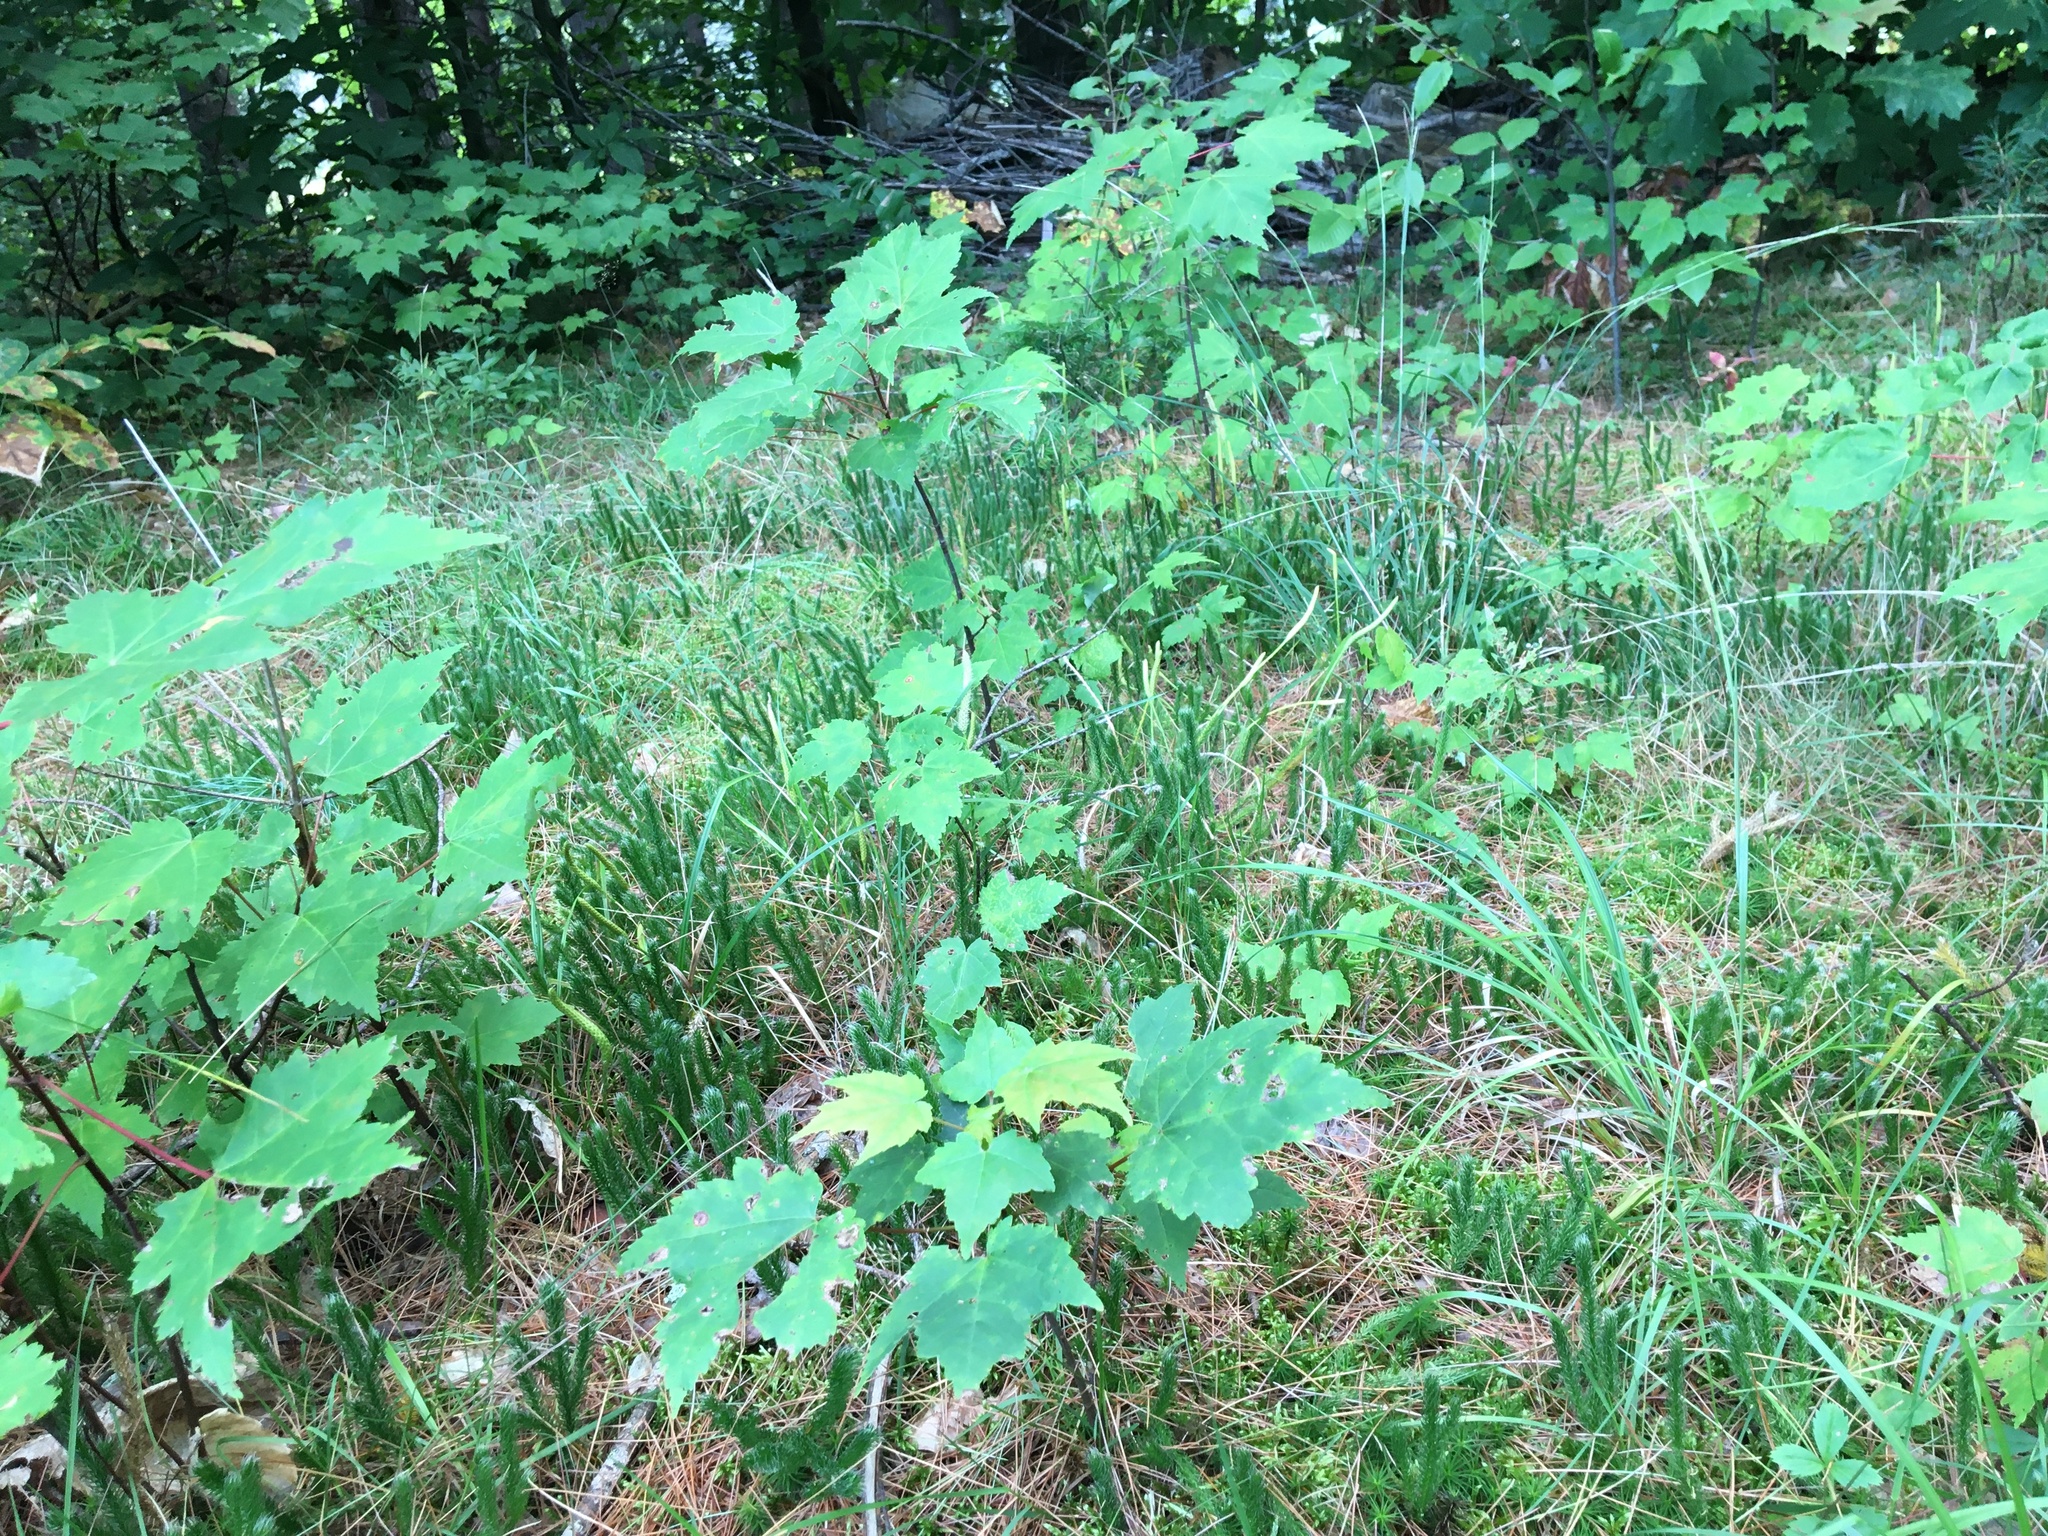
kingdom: Plantae
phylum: Tracheophyta
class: Magnoliopsida
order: Sapindales
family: Sapindaceae
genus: Acer
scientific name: Acer rubrum
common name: Red maple
